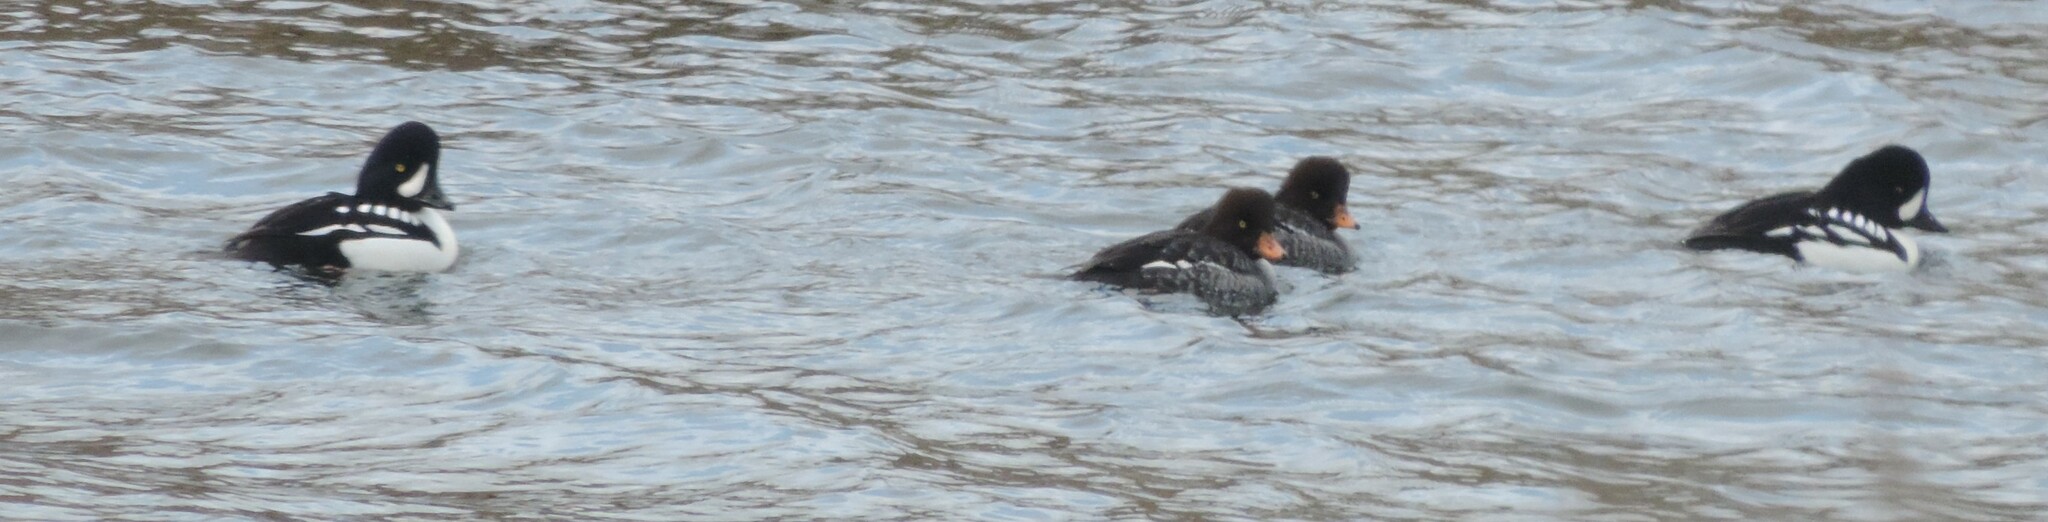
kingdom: Animalia
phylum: Chordata
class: Aves
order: Anseriformes
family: Anatidae
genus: Bucephala
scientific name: Bucephala islandica
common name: Barrow's goldeneye
